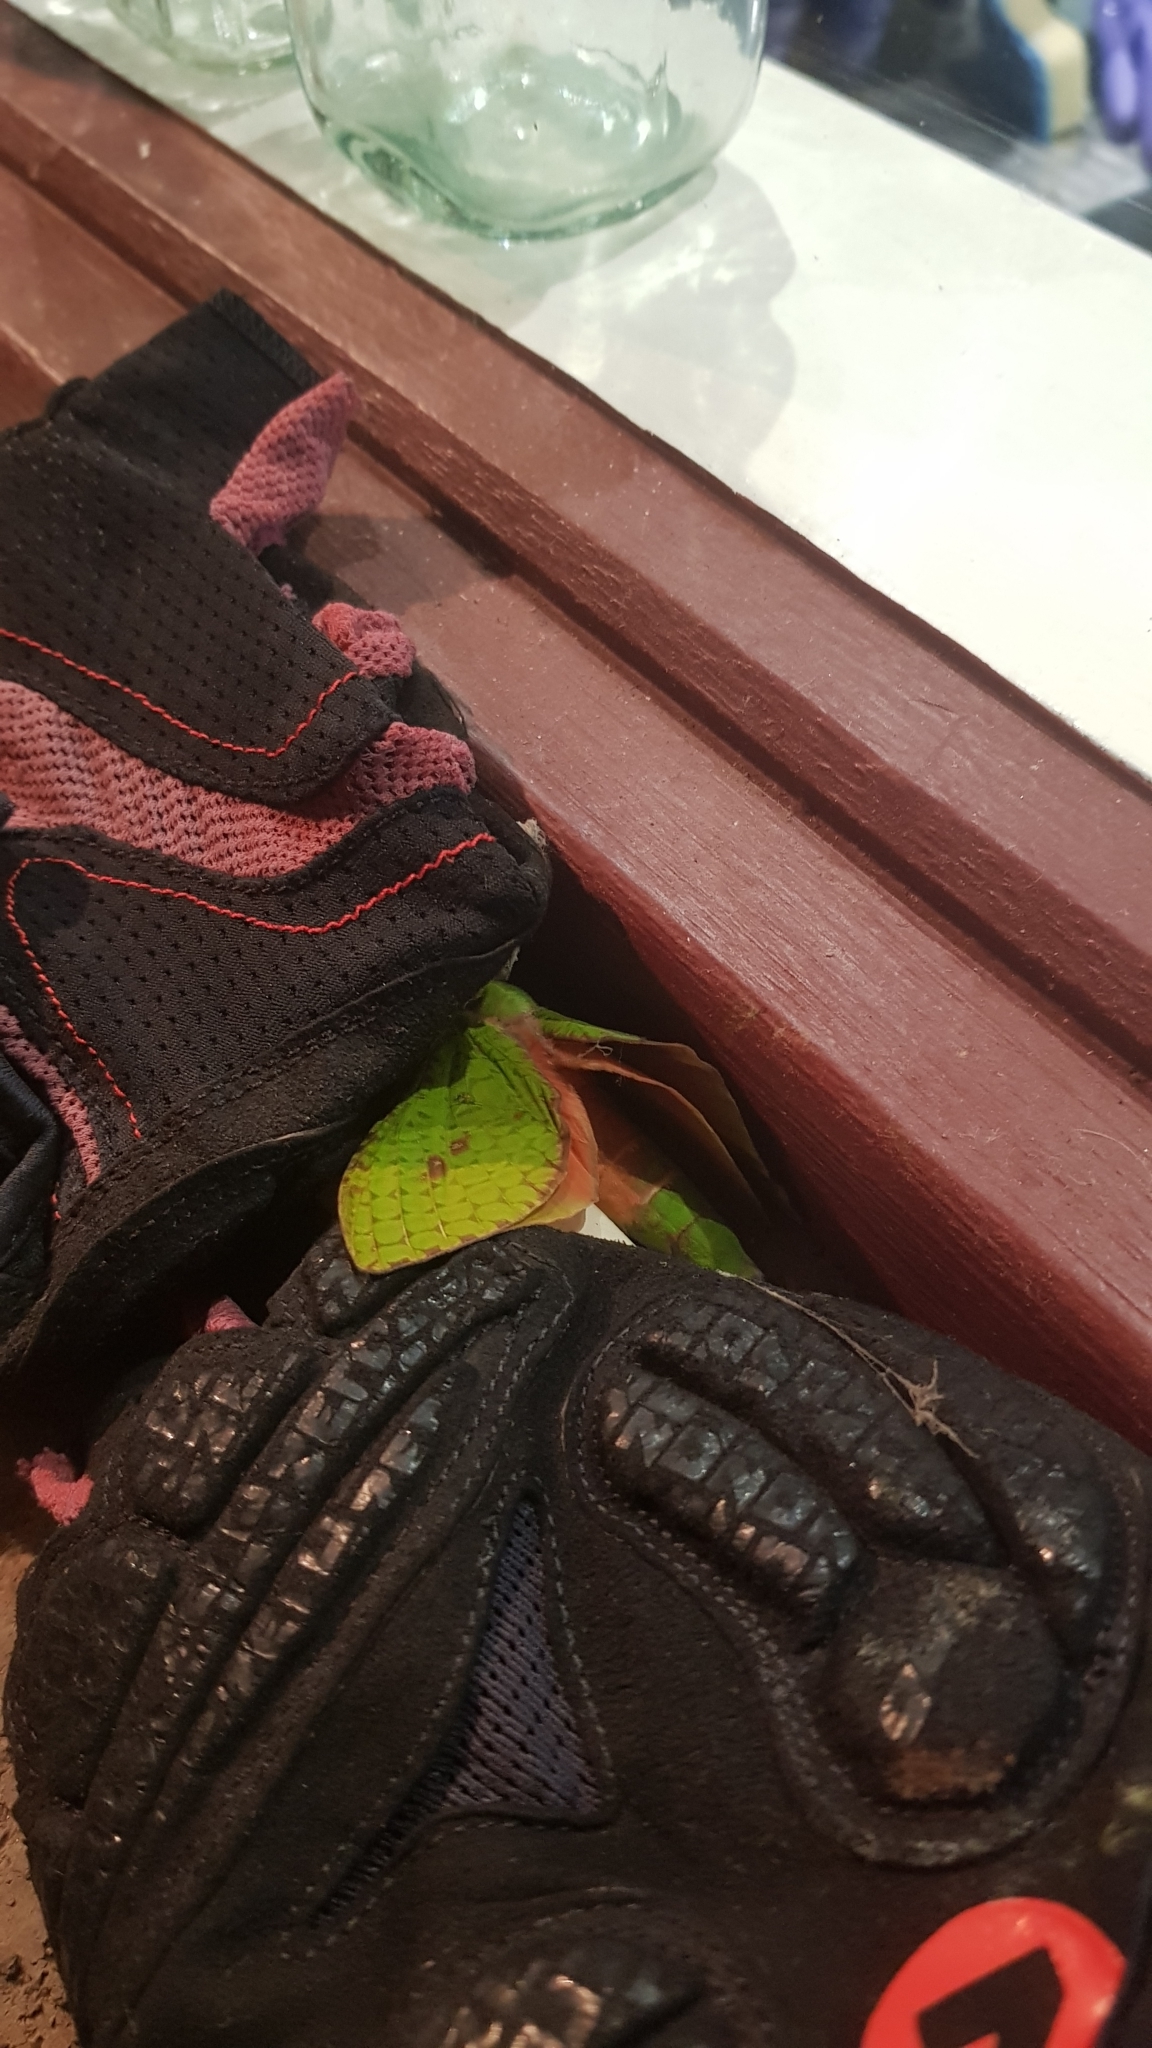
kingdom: Animalia
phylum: Arthropoda
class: Insecta
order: Lepidoptera
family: Hepialidae
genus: Aenetus
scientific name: Aenetus eximia
